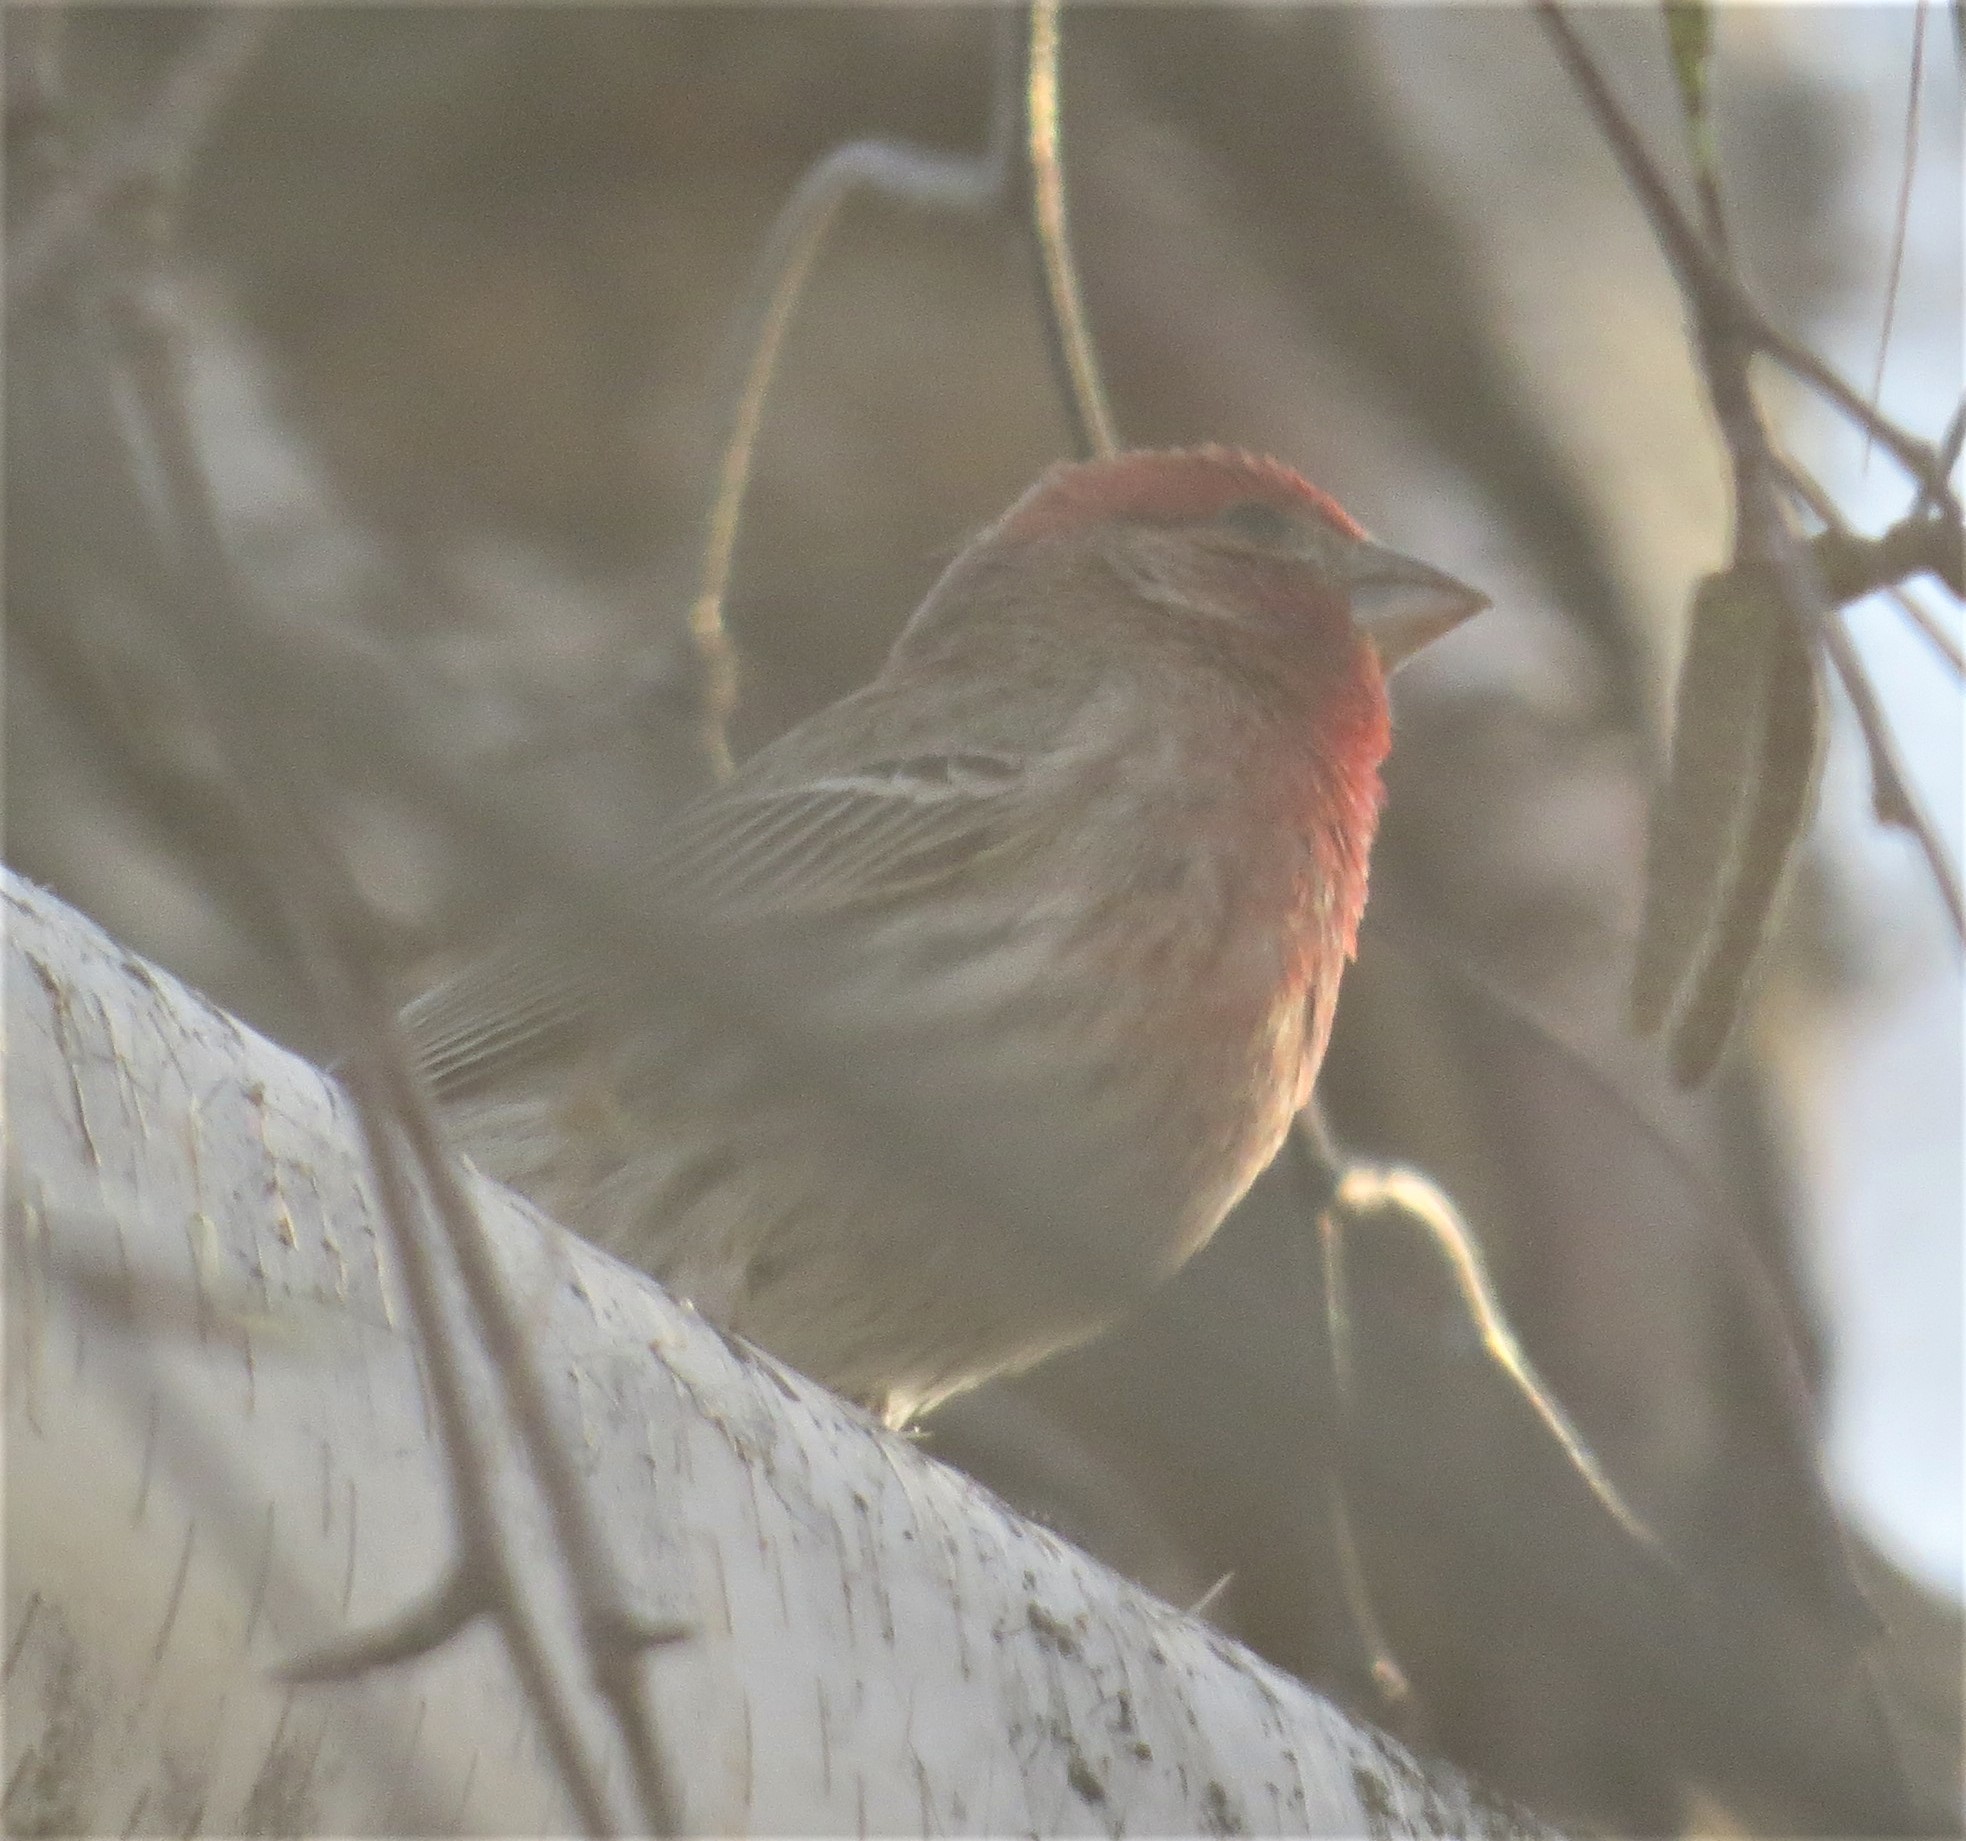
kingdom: Animalia
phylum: Chordata
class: Aves
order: Passeriformes
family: Fringillidae
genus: Haemorhous
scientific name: Haemorhous mexicanus
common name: House finch
